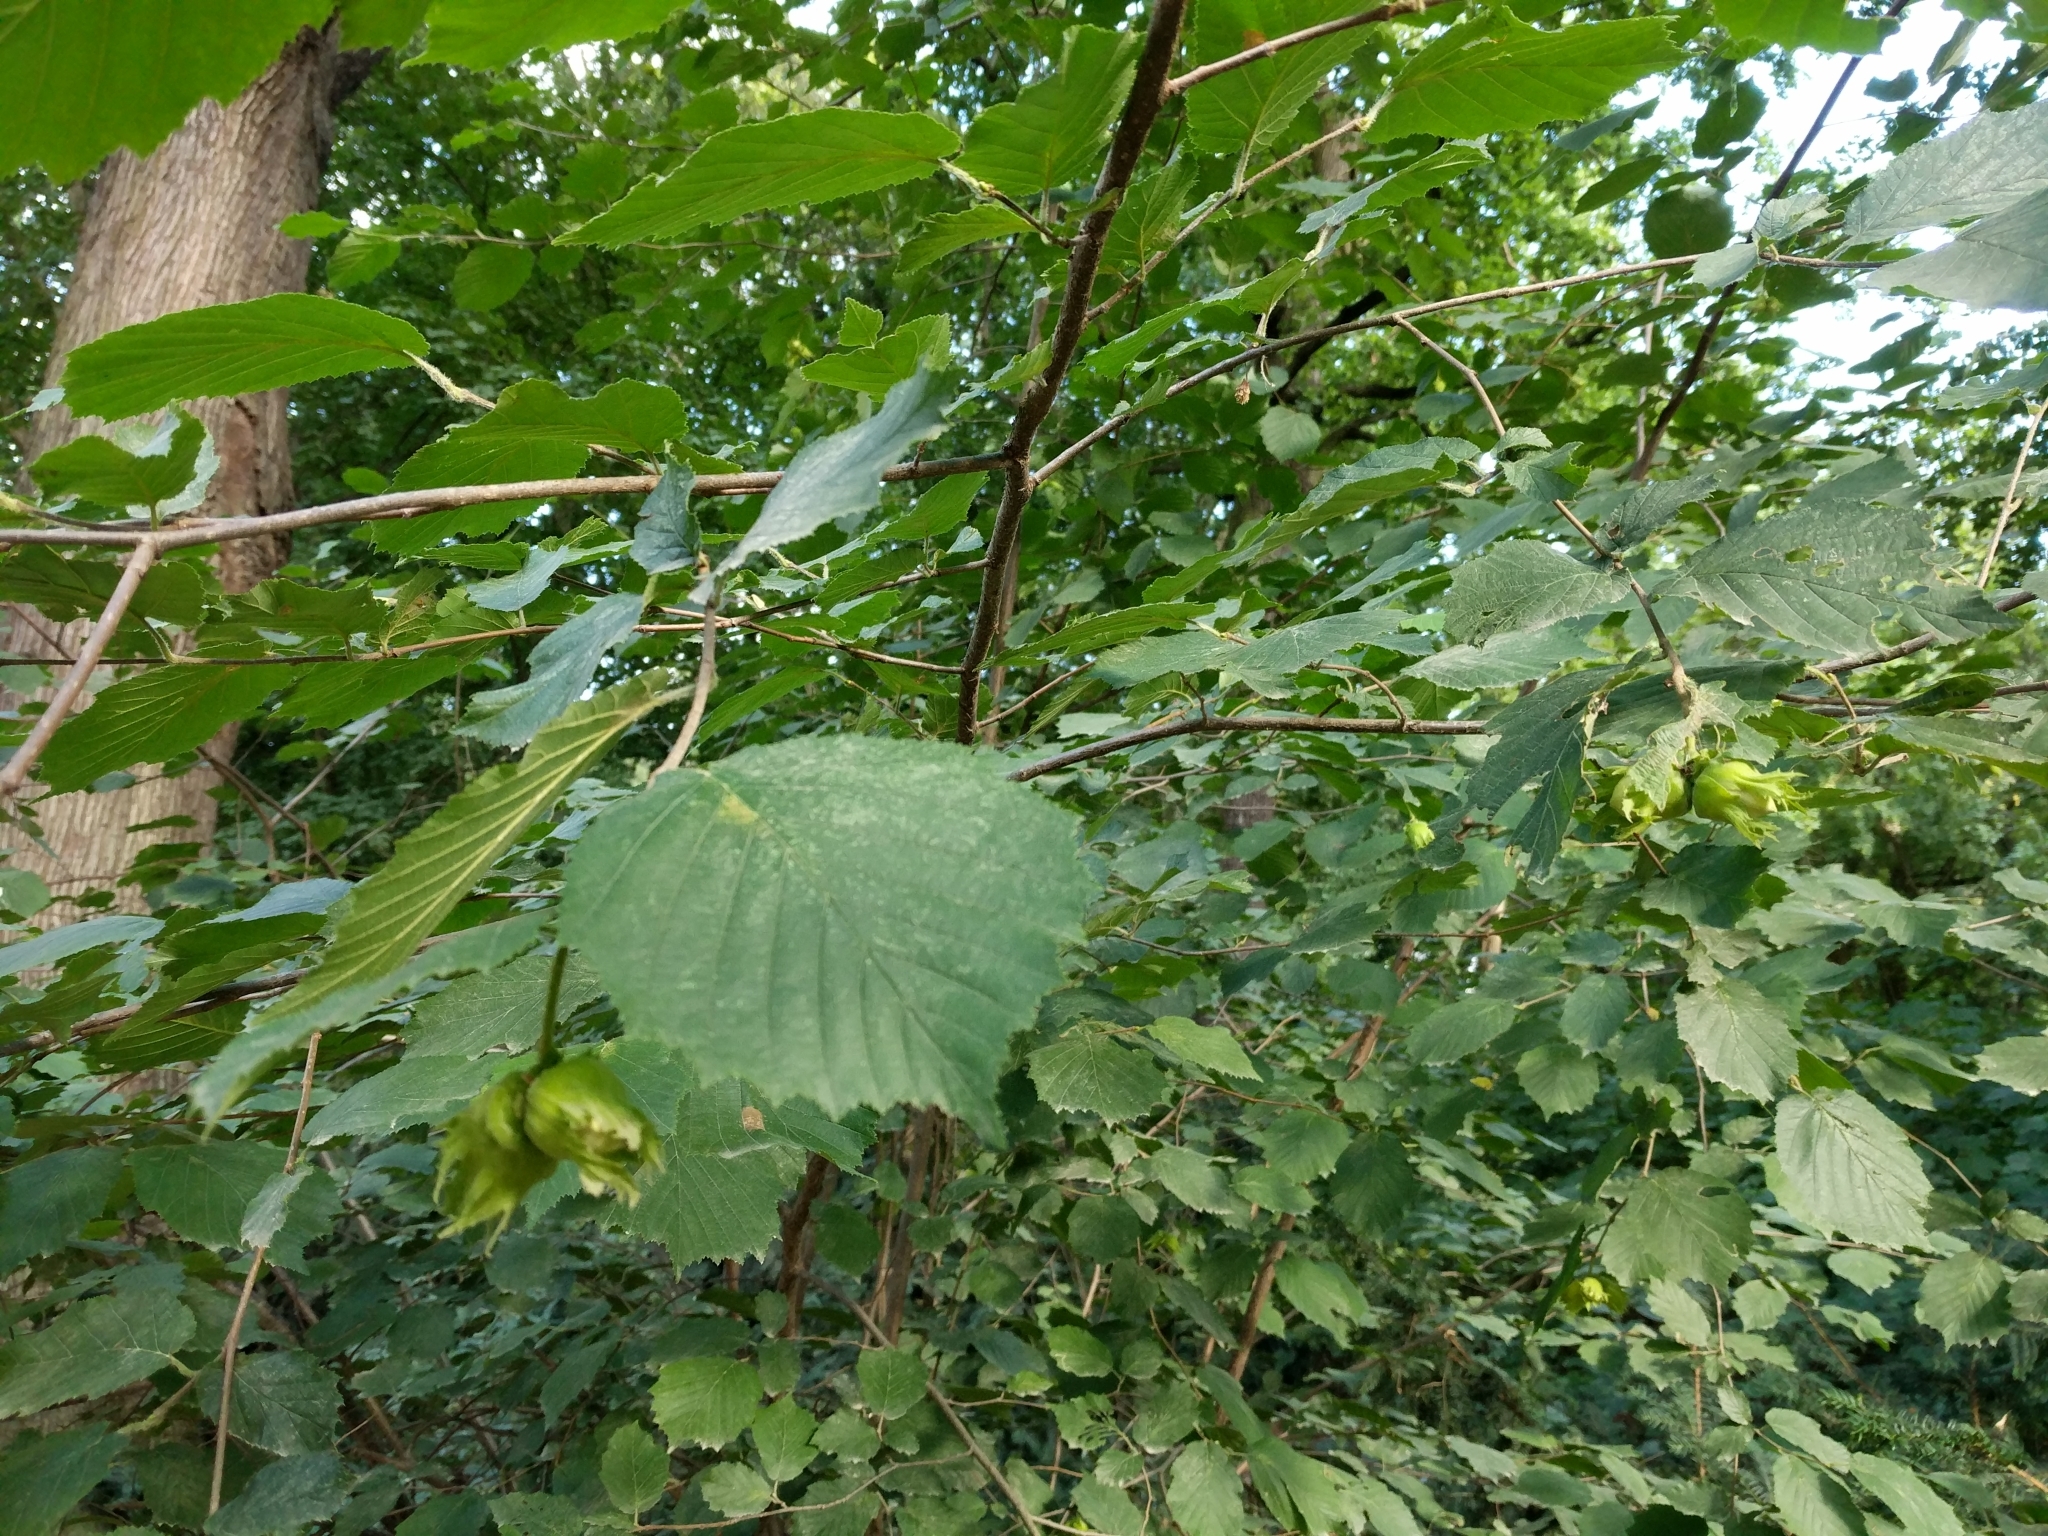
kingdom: Plantae
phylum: Tracheophyta
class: Magnoliopsida
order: Fagales
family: Betulaceae
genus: Corylus
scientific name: Corylus avellana
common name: European hazel
